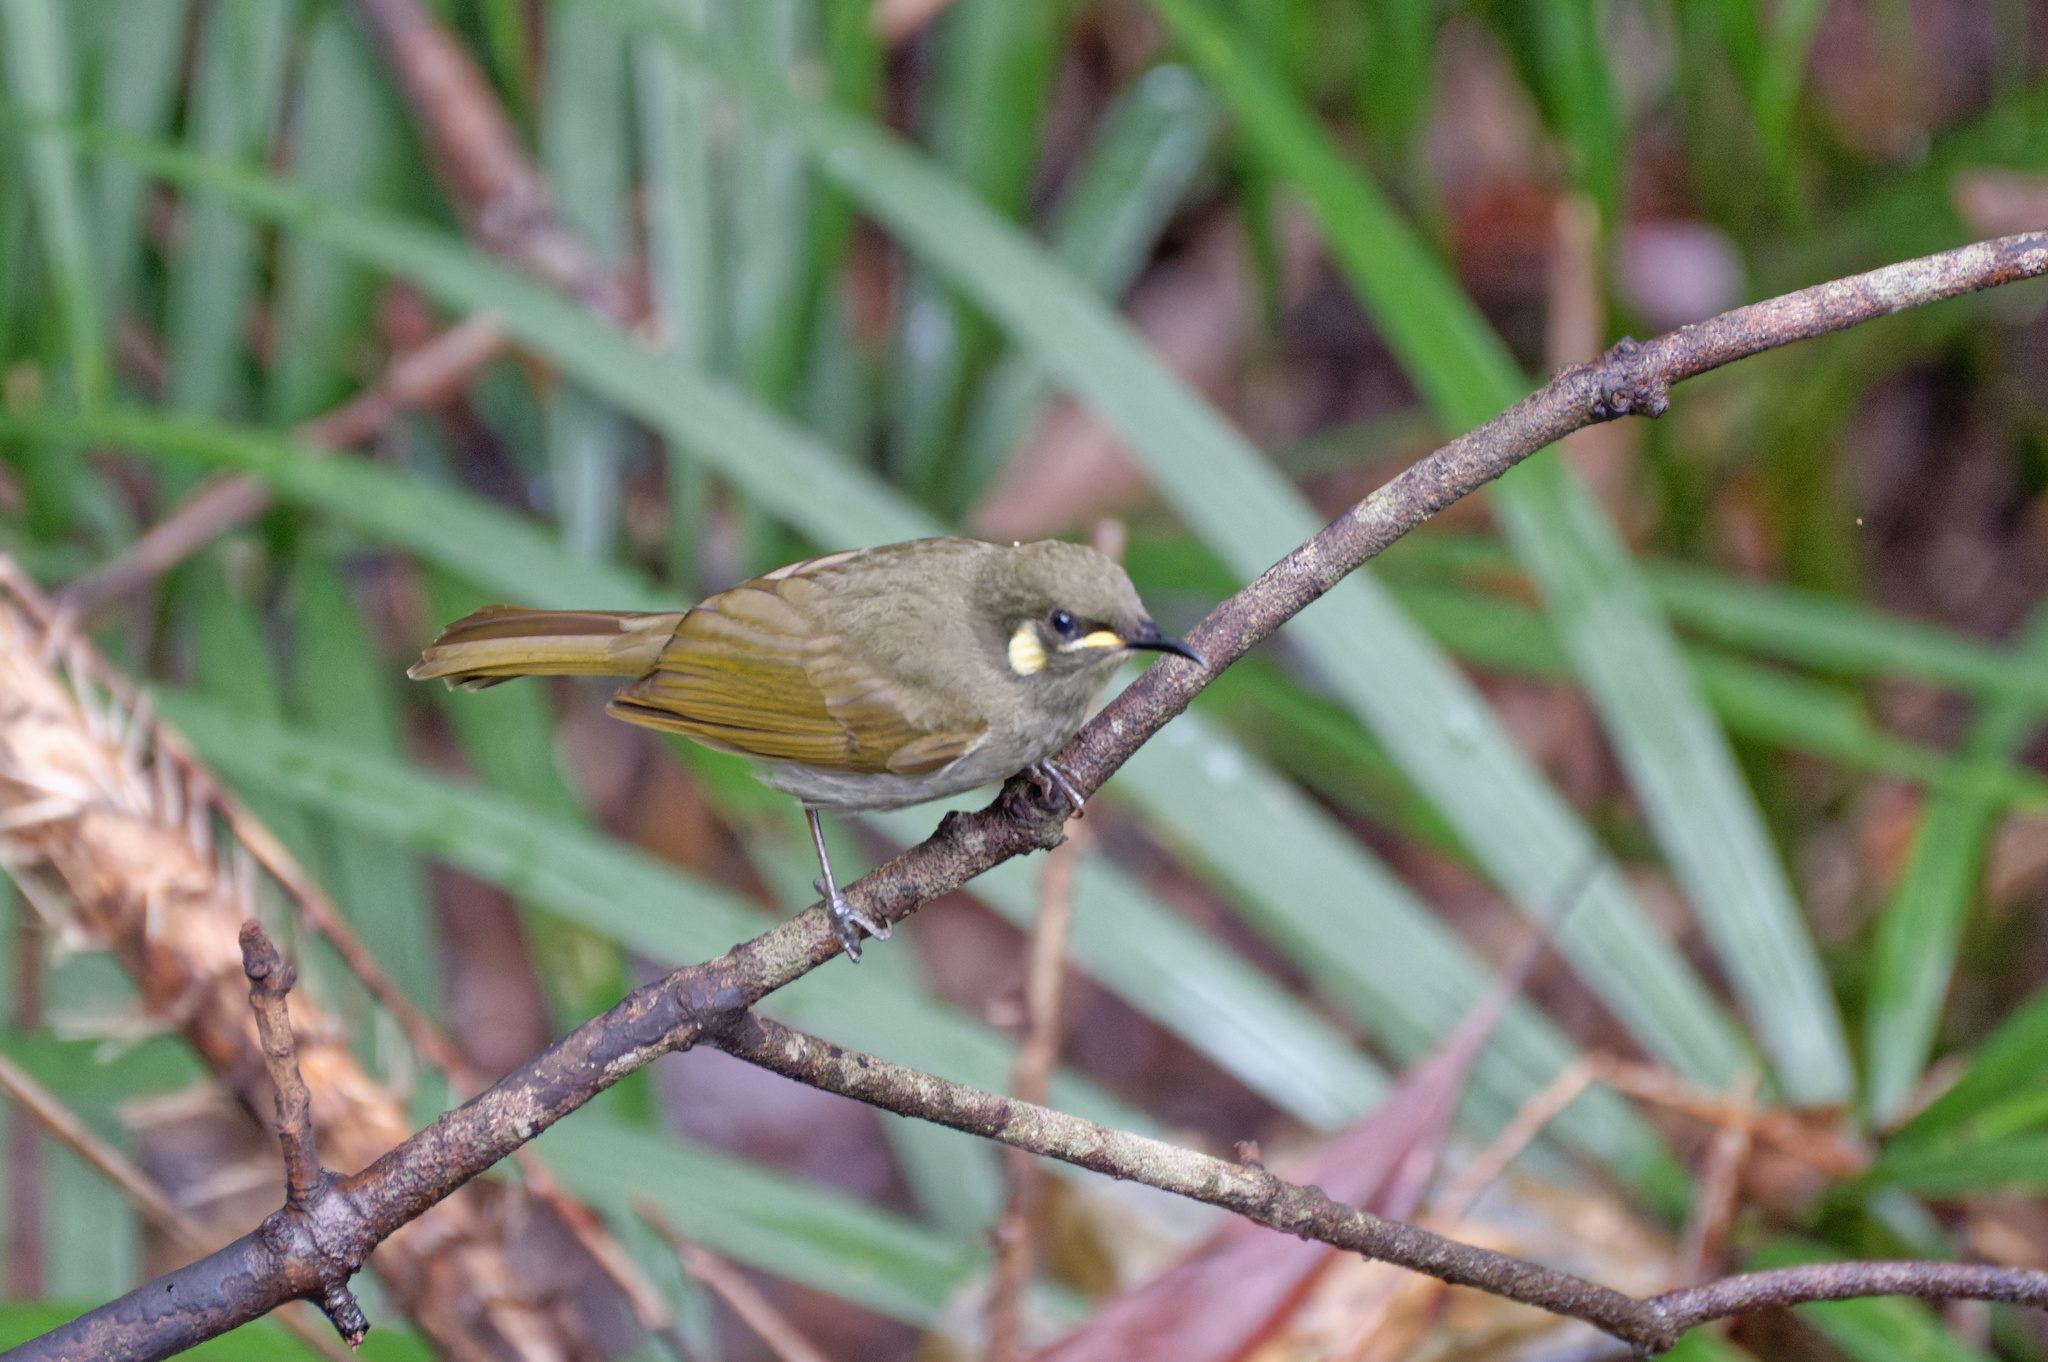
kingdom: Animalia
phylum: Chordata
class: Aves
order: Passeriformes
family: Meliphagidae
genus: Meliphaga
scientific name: Meliphaga notata
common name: Yellow-spotted honeyeater
